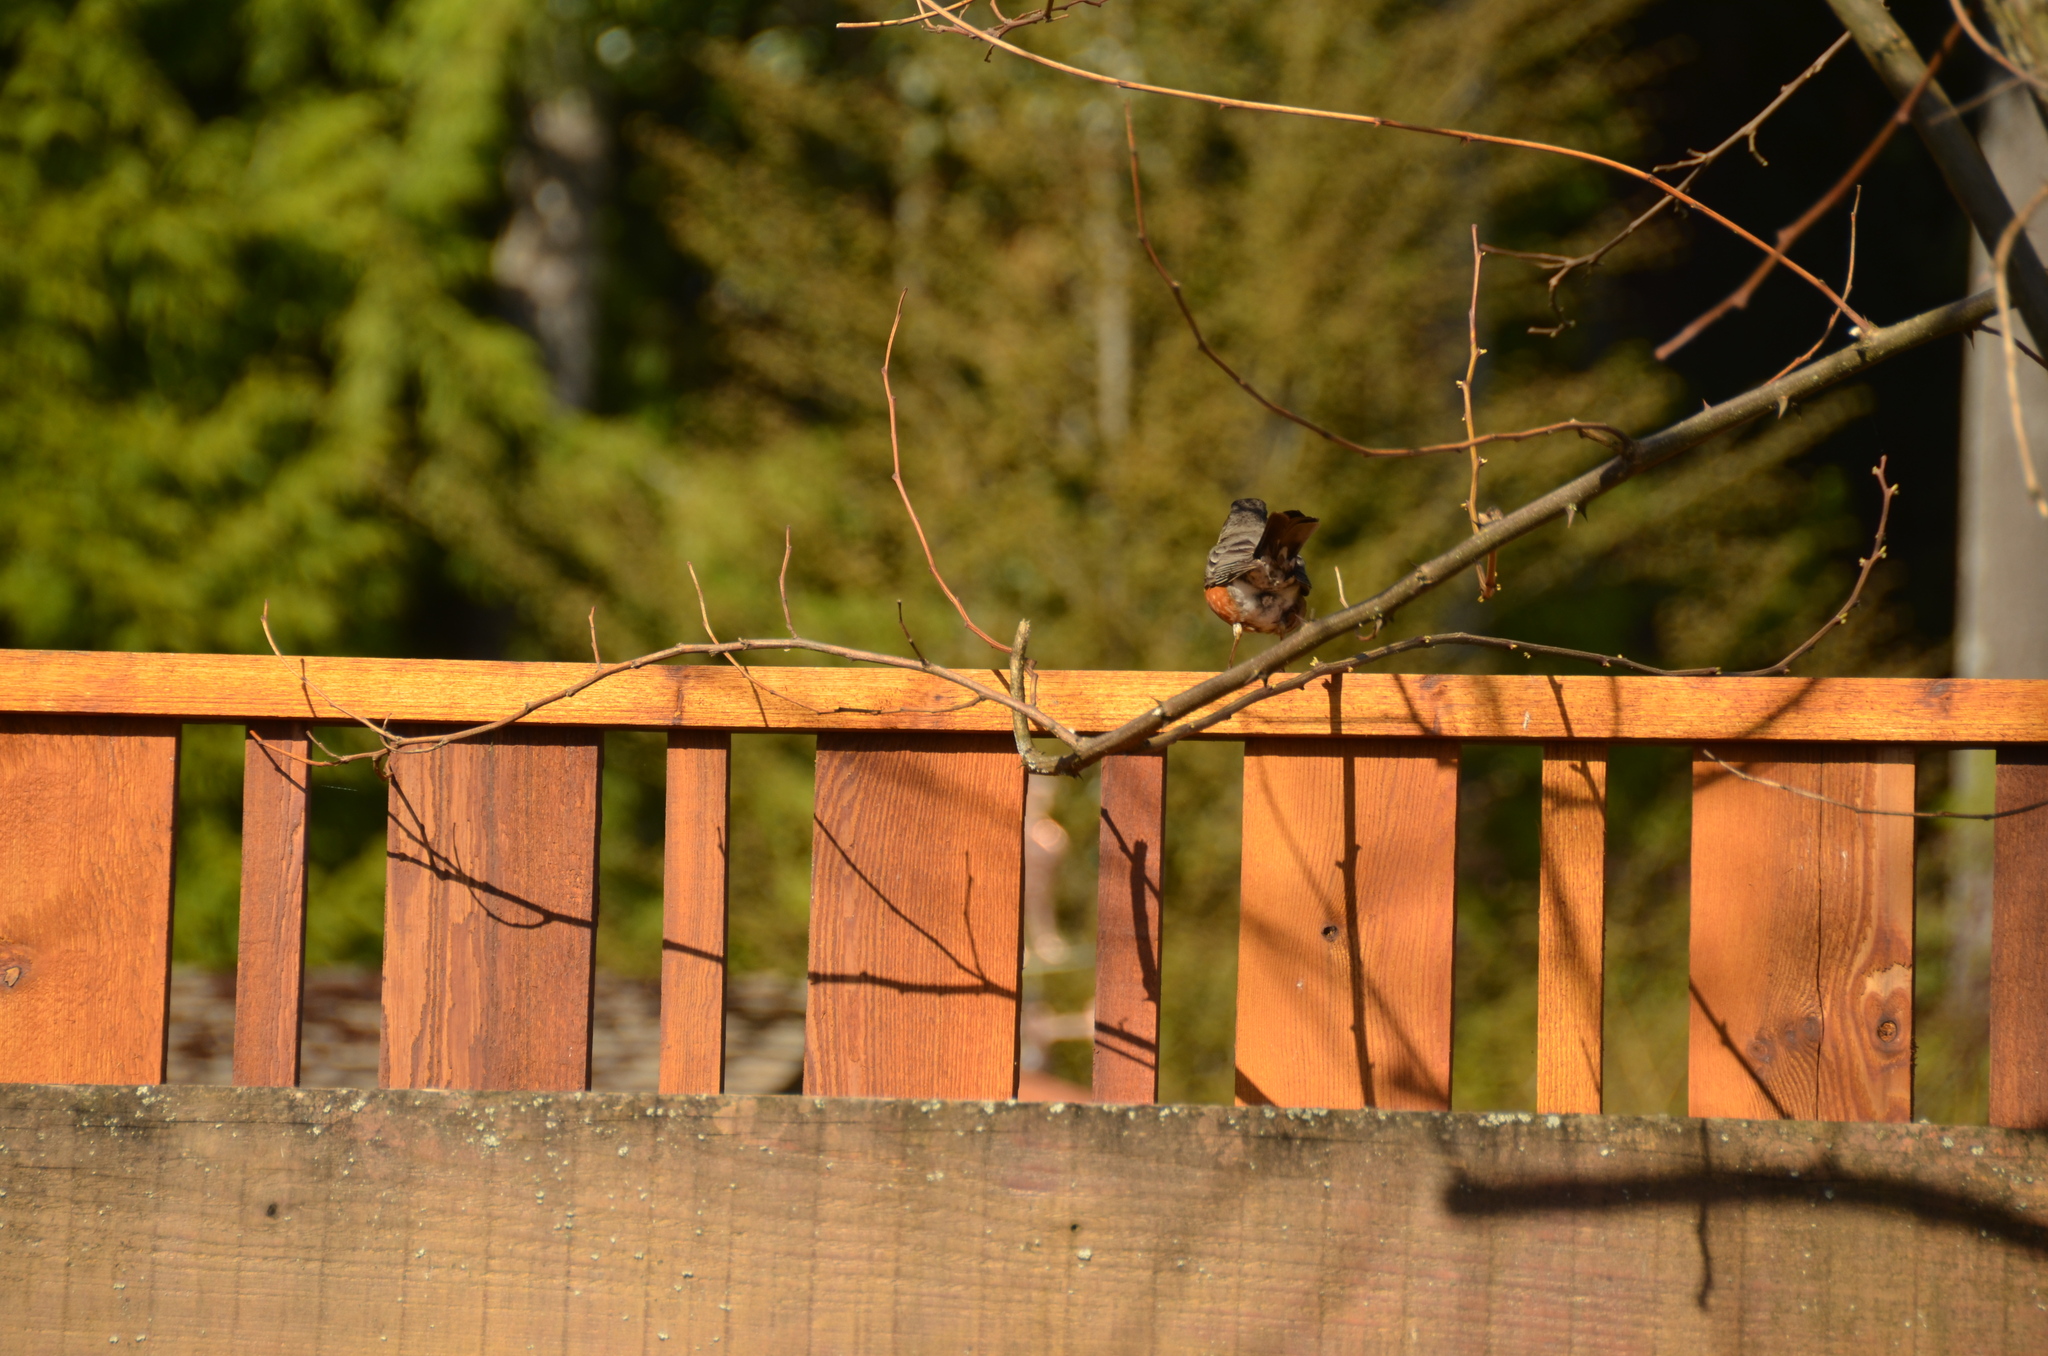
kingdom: Animalia
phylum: Chordata
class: Aves
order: Passeriformes
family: Turdidae
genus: Turdus
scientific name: Turdus migratorius
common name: American robin
